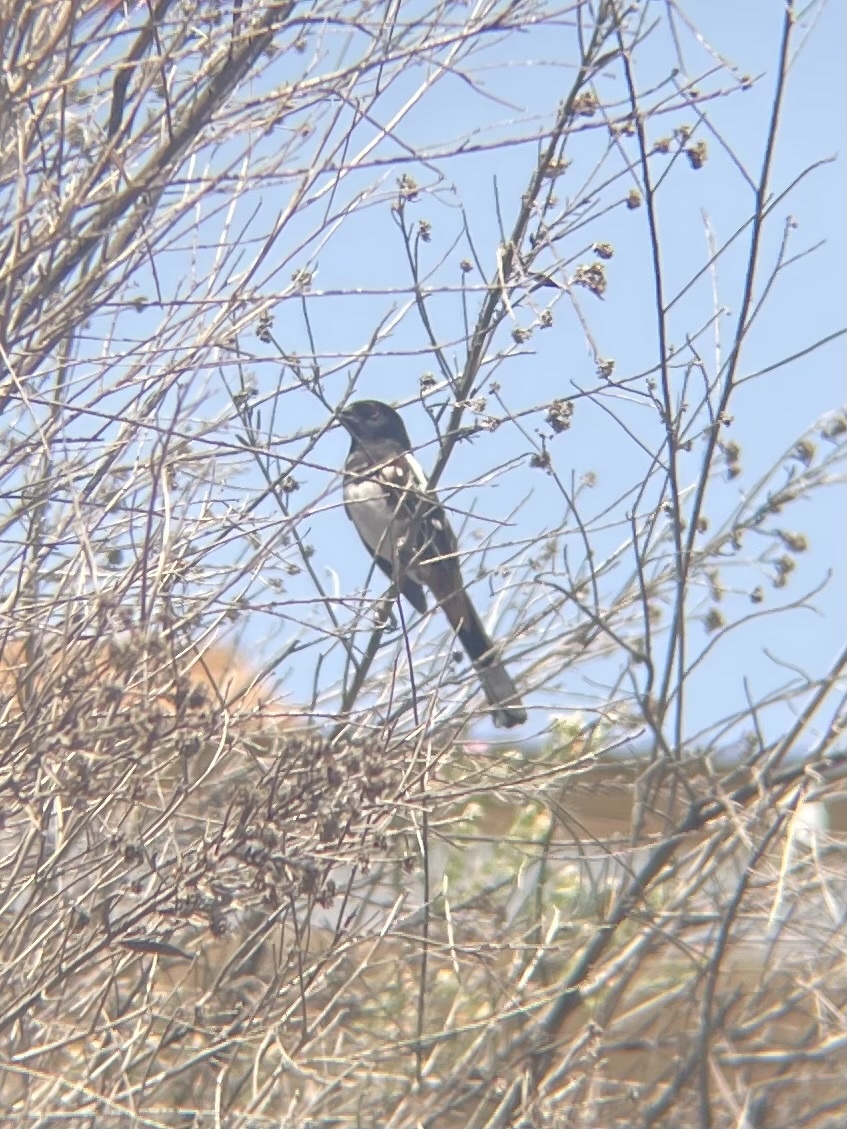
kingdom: Animalia
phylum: Chordata
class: Aves
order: Passeriformes
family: Passerellidae
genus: Pipilo
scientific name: Pipilo maculatus
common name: Spotted towhee
